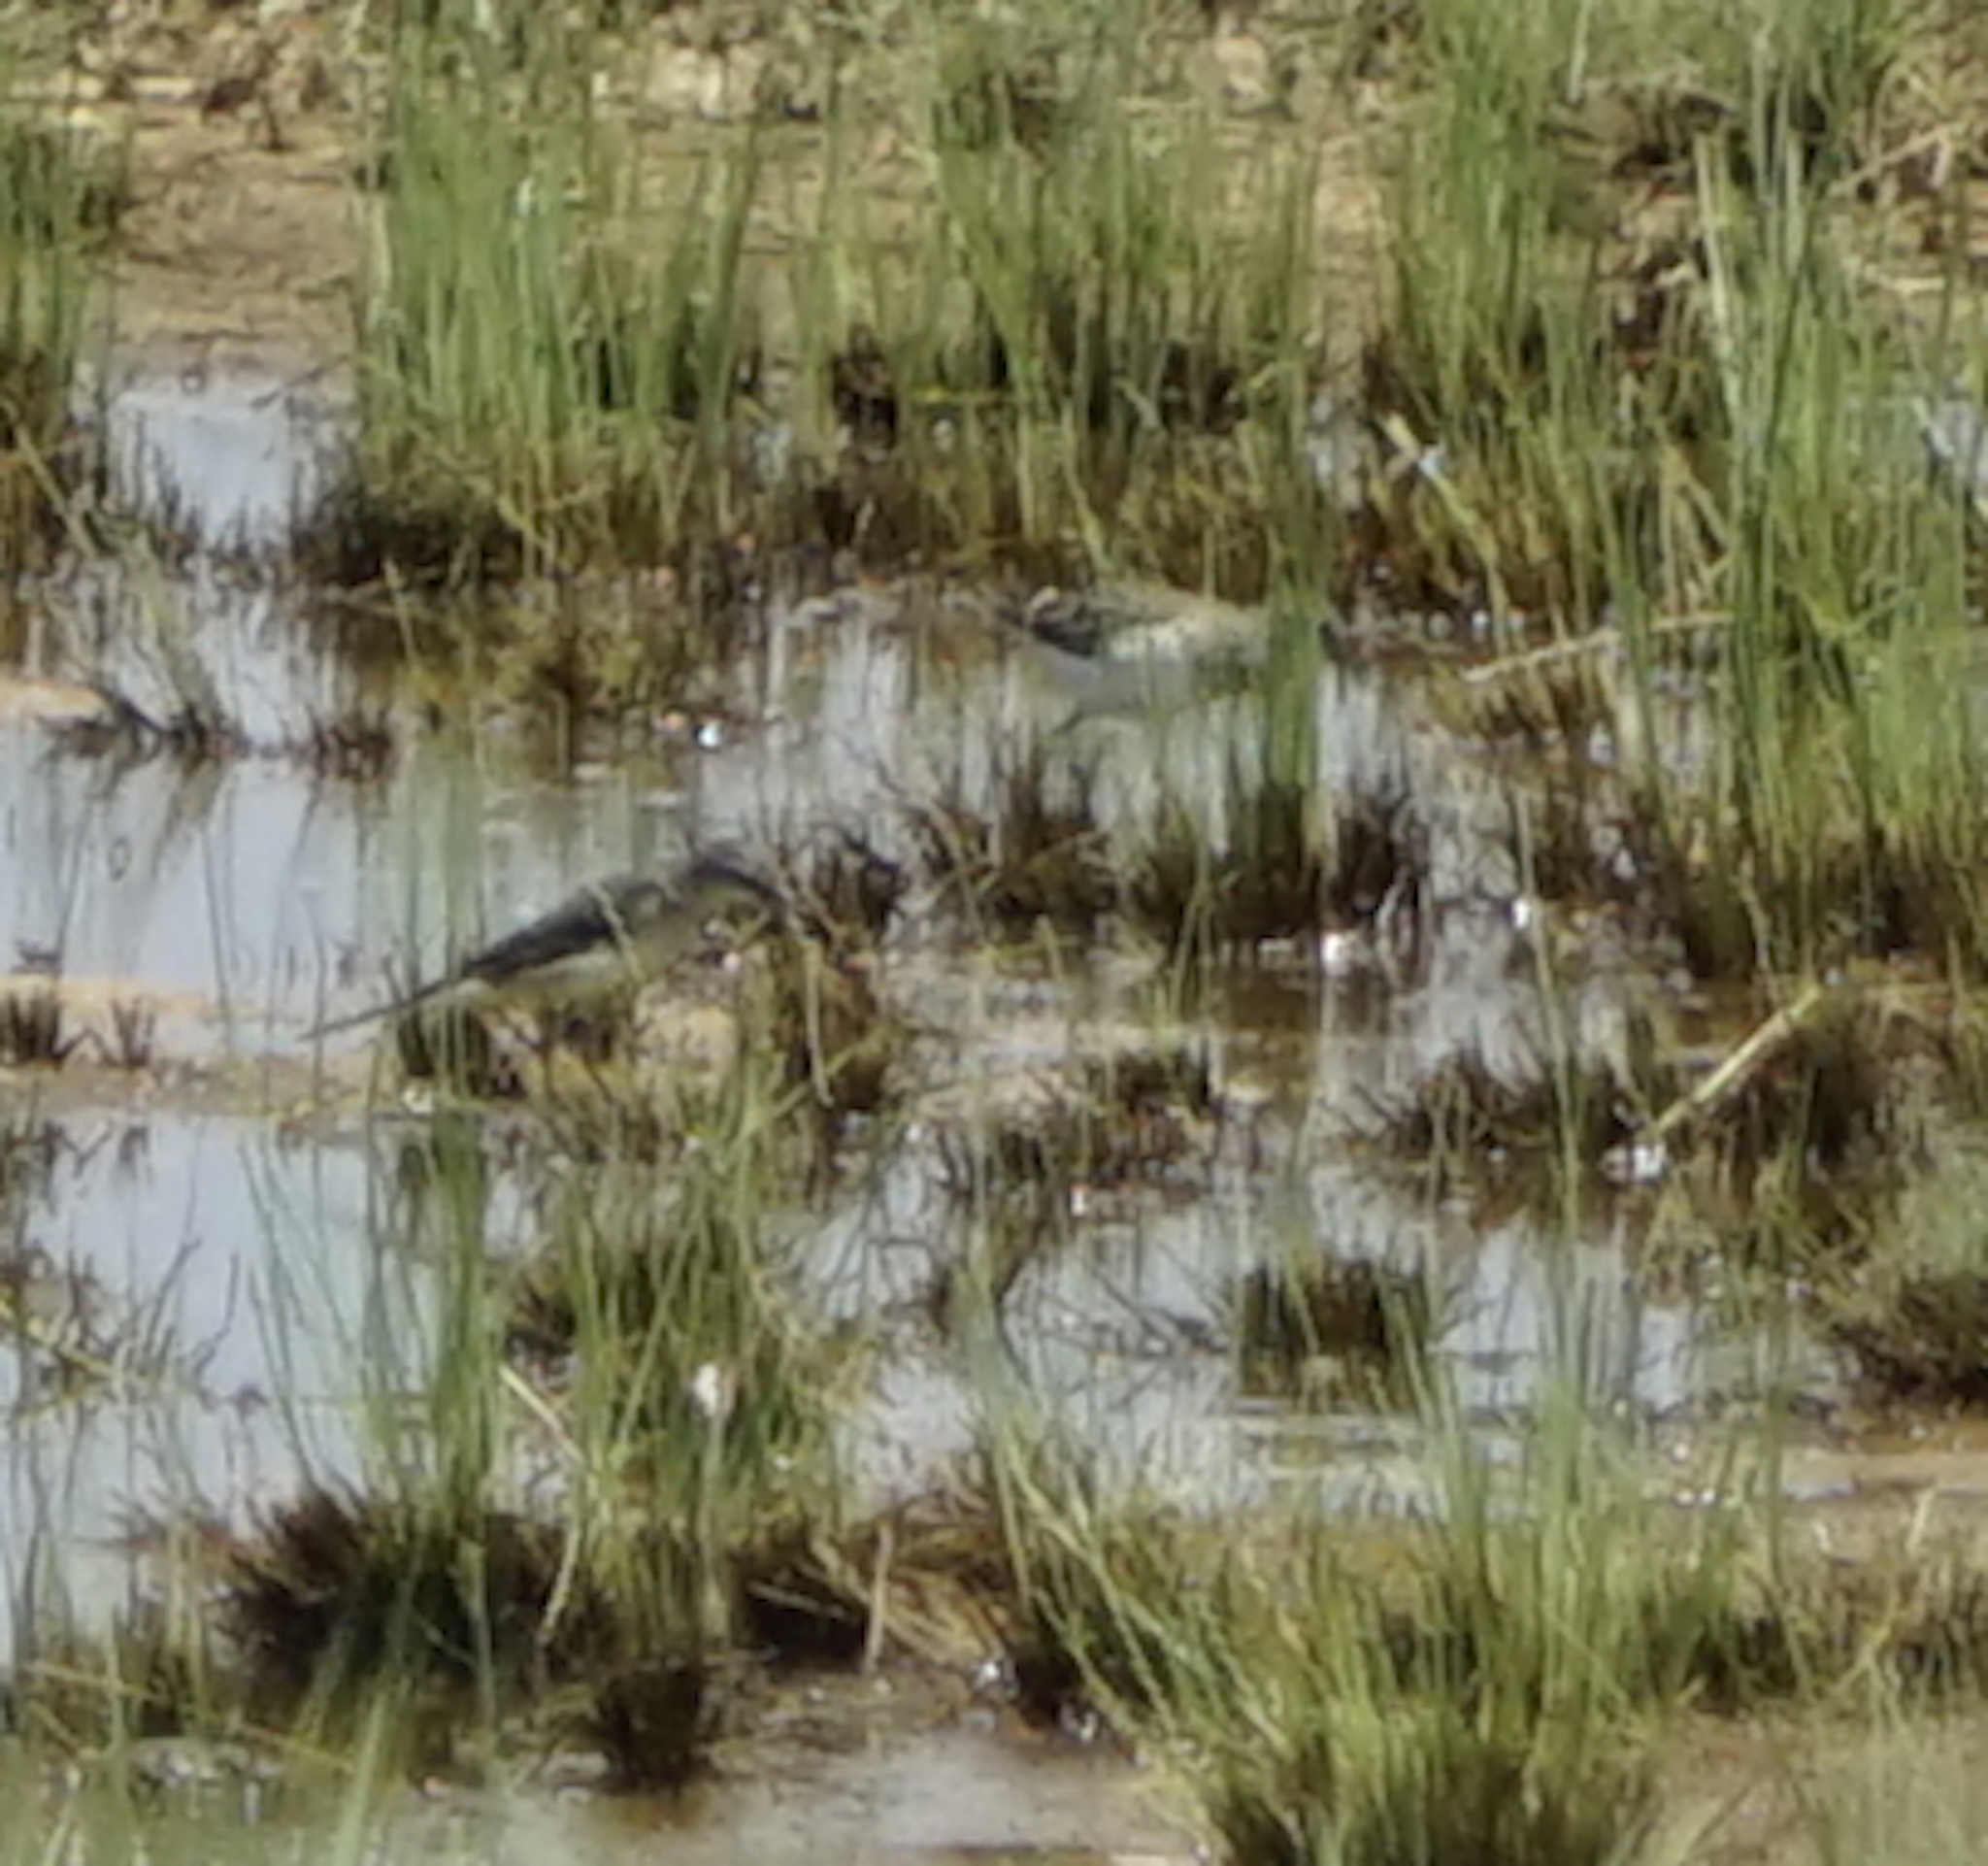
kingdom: Animalia
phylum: Chordata
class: Aves
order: Passeriformes
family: Motacillidae
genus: Motacilla
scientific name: Motacilla tschutschensis
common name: Eastern yellow wagtail
